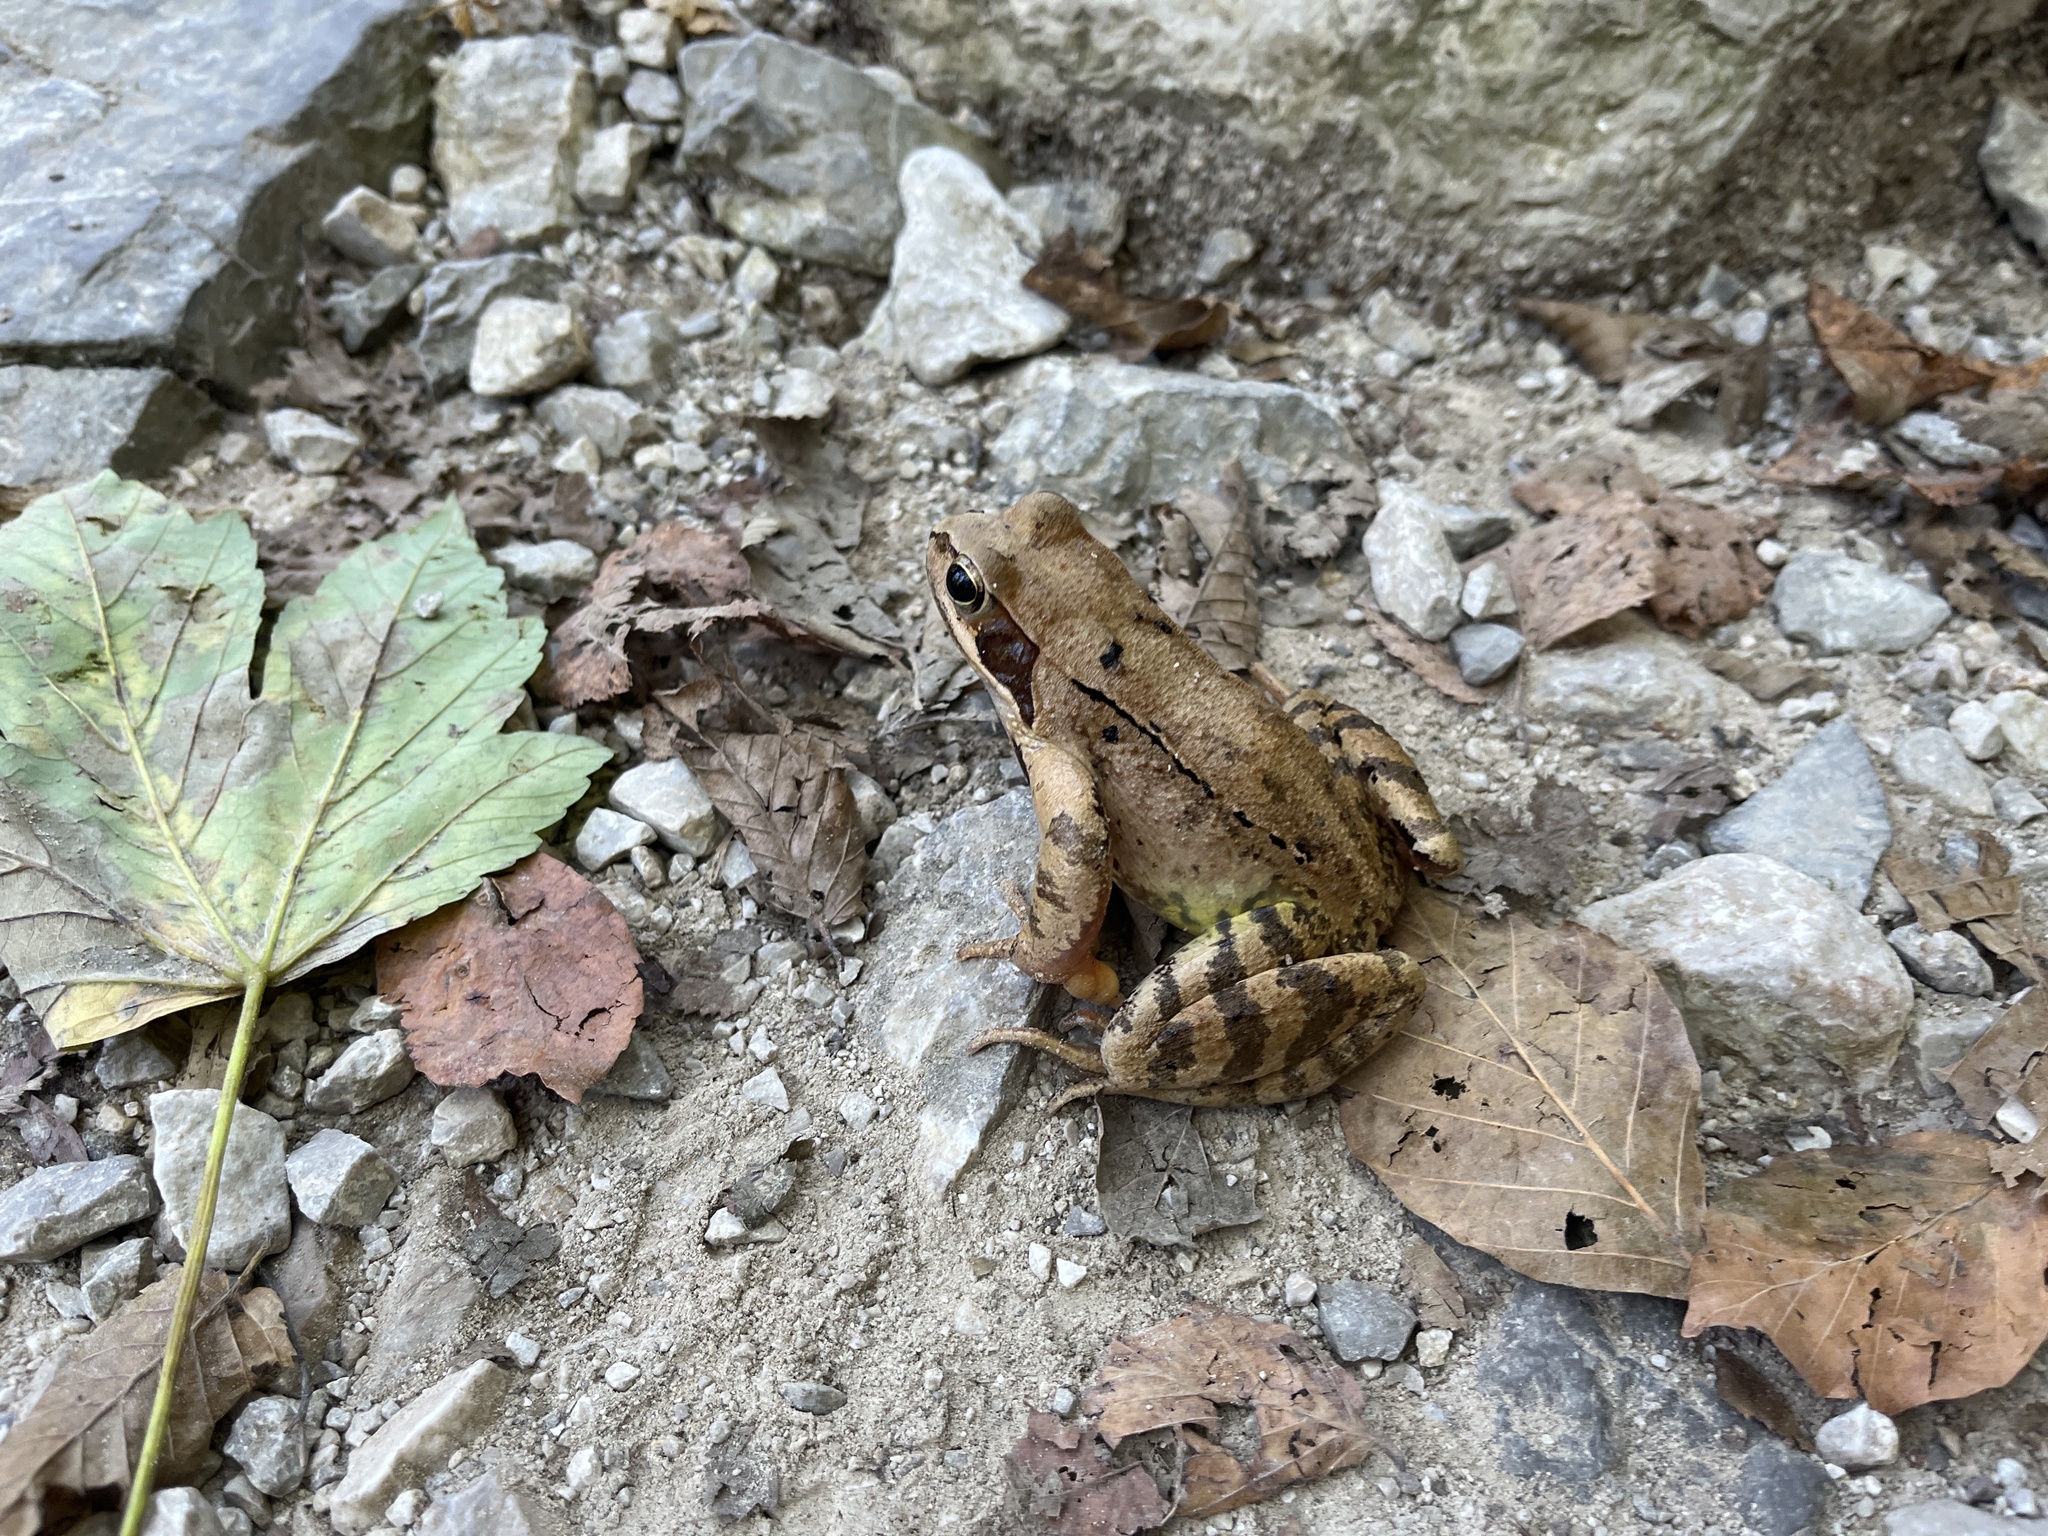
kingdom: Animalia
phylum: Chordata
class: Amphibia
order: Anura
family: Ranidae
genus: Rana
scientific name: Rana temporaria
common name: Common frog
